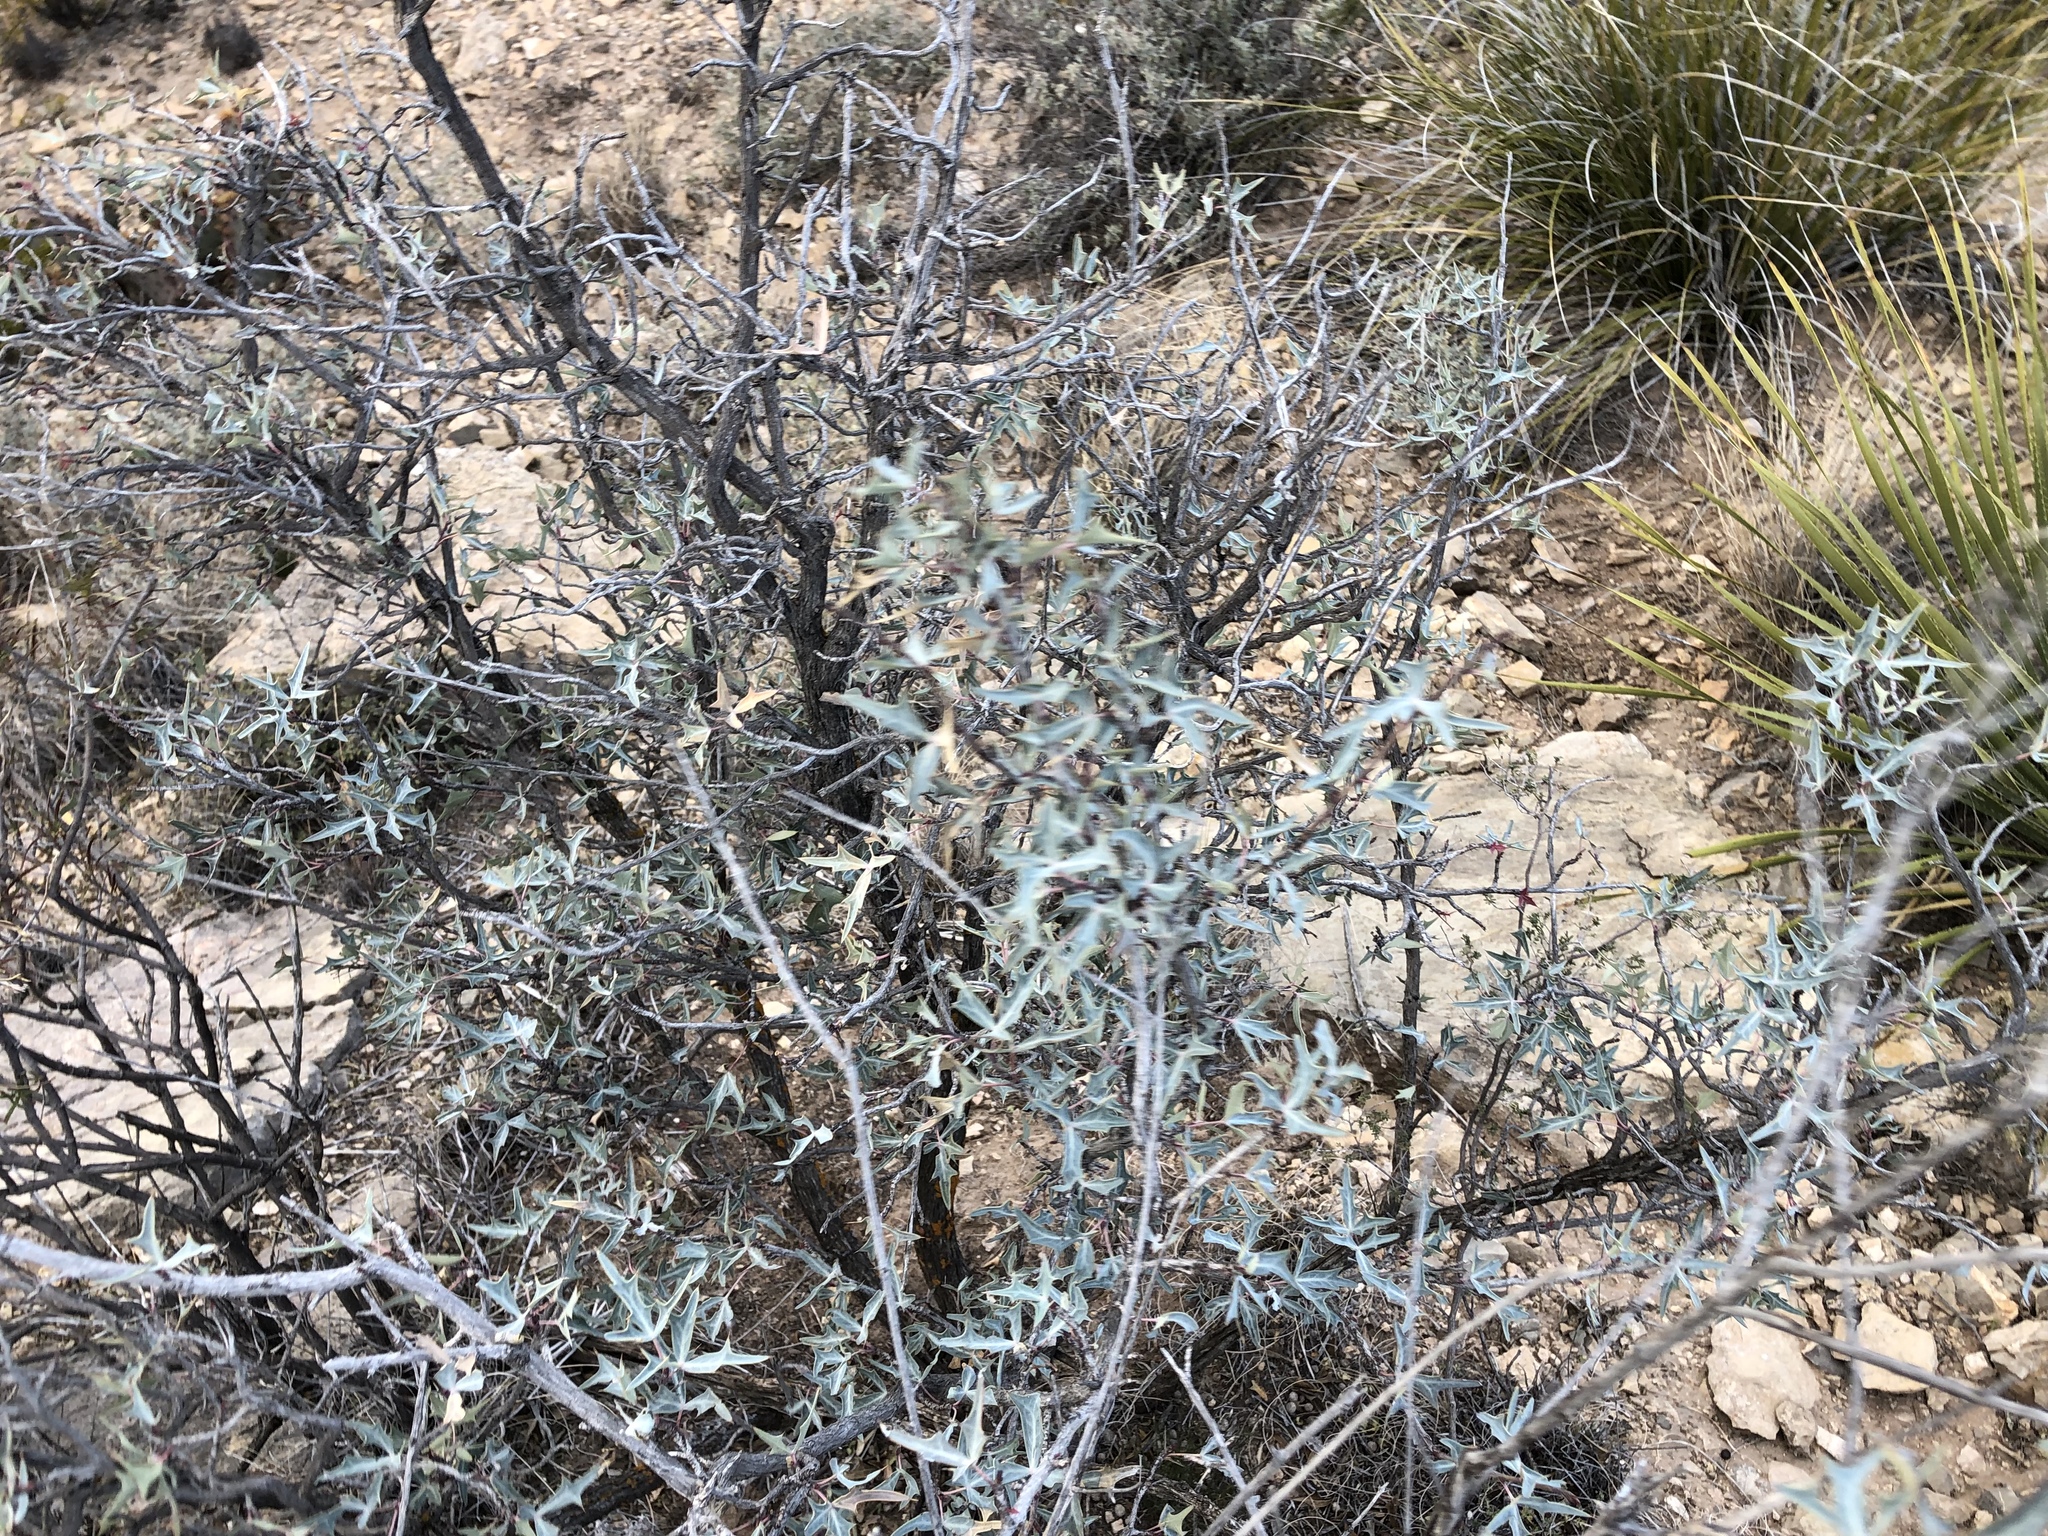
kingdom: Plantae
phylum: Tracheophyta
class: Magnoliopsida
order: Ranunculales
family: Berberidaceae
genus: Alloberberis
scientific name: Alloberberis trifoliolata
